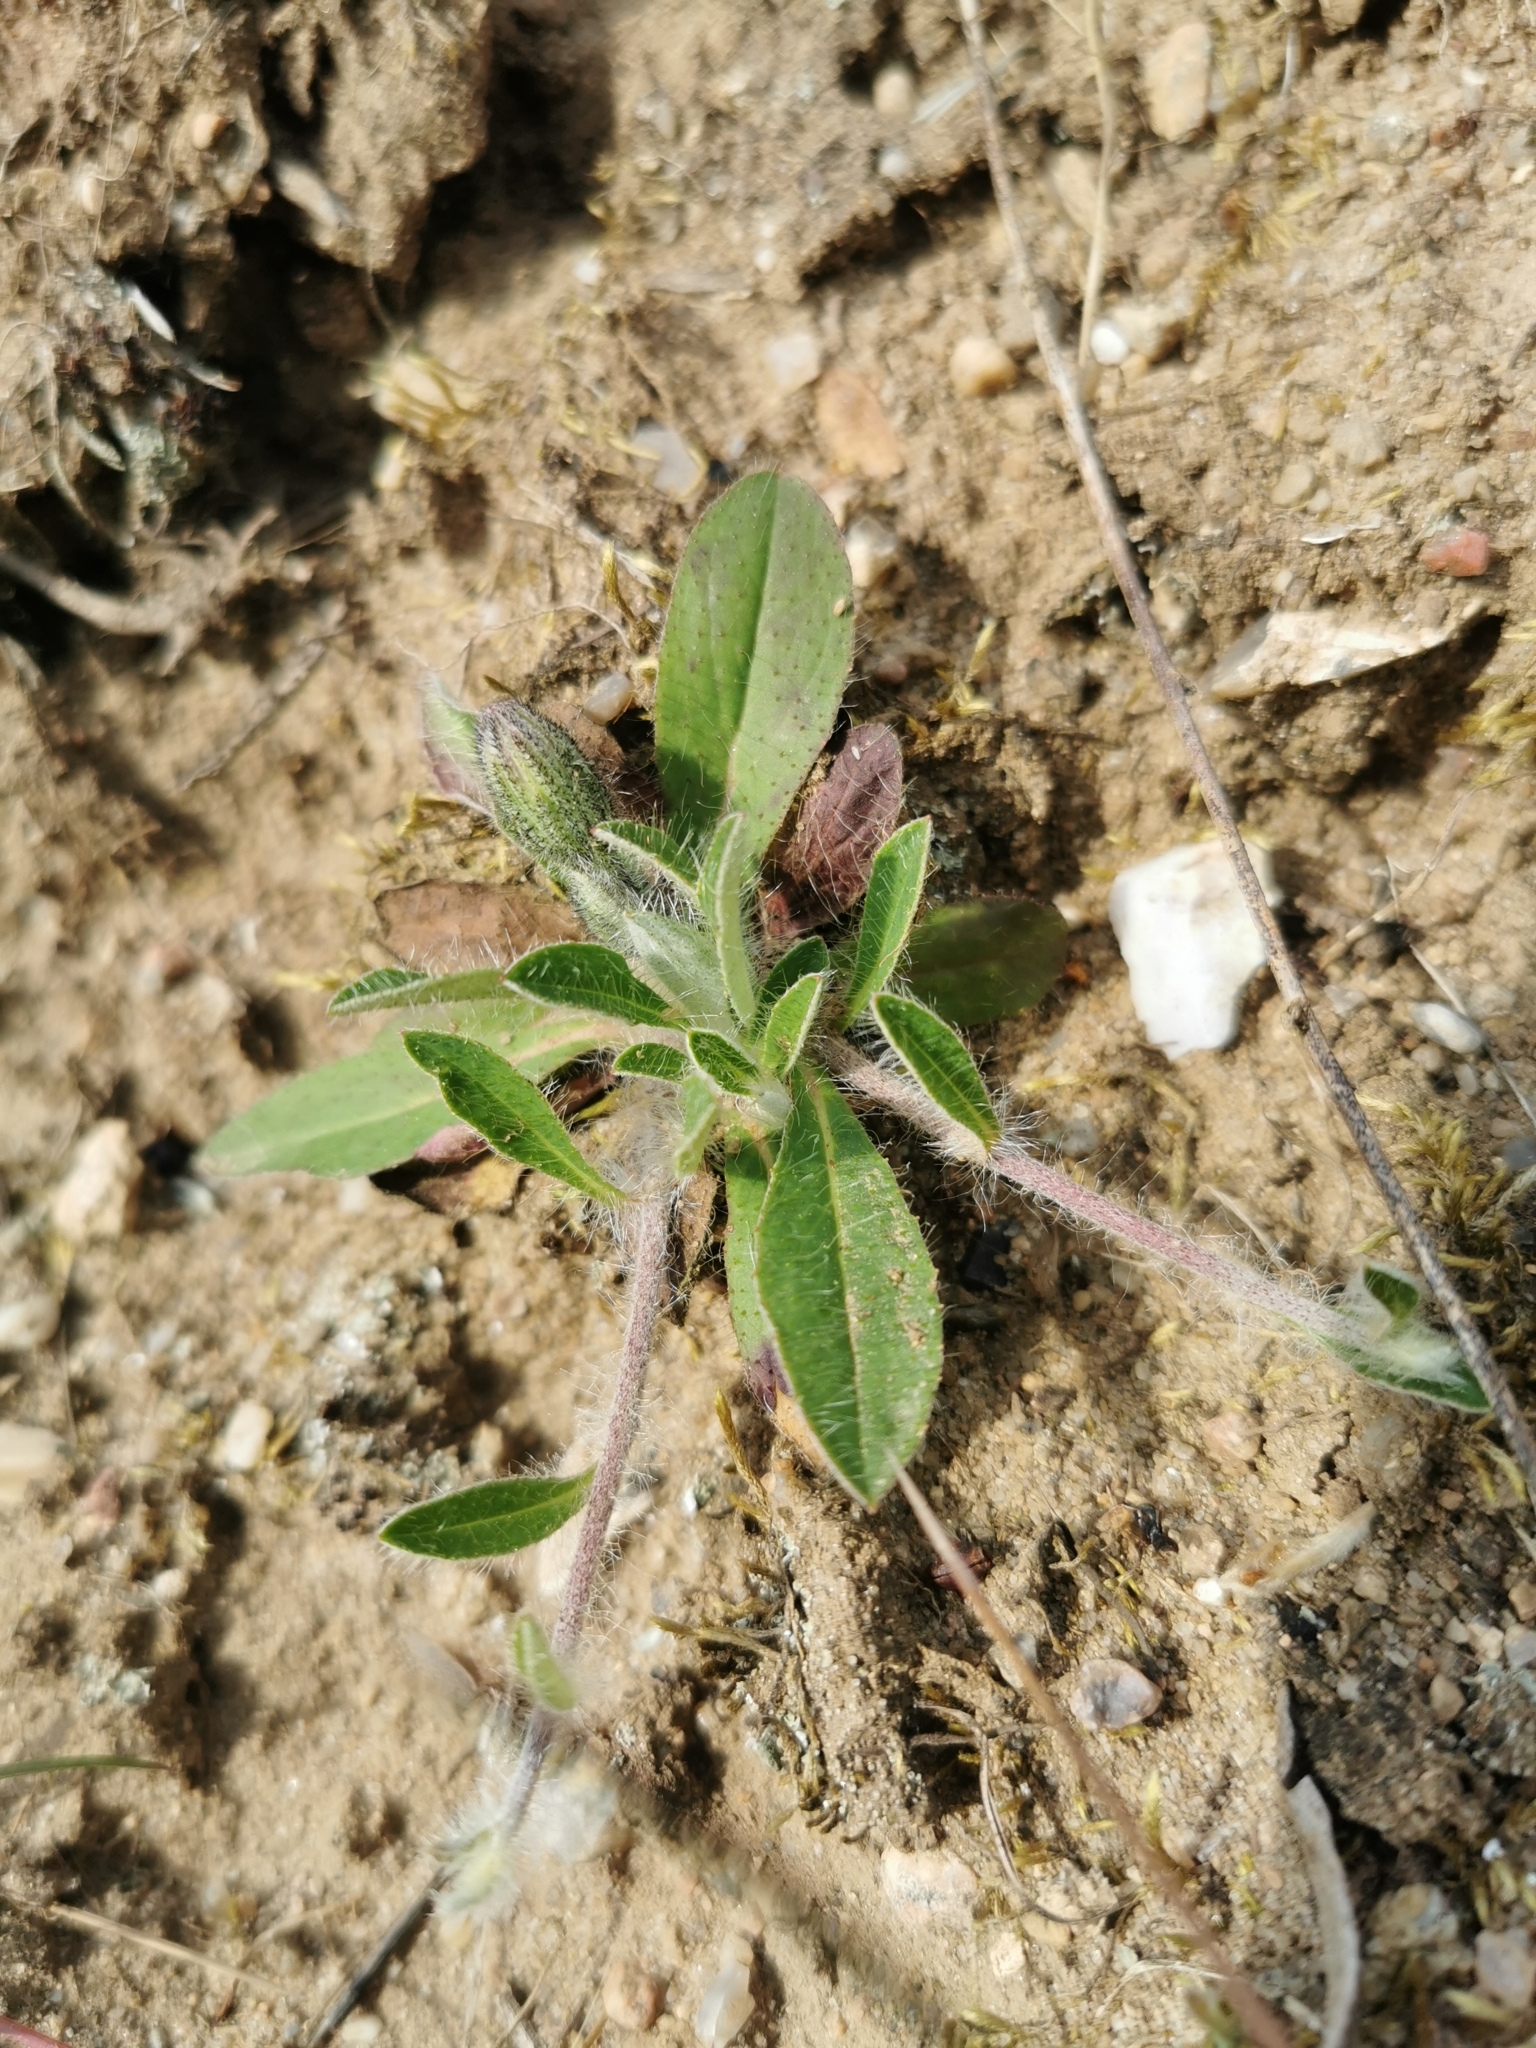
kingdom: Plantae
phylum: Tracheophyta
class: Magnoliopsida
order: Asterales
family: Asteraceae
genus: Pilosella
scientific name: Pilosella officinarum
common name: Mouse-ear hawkweed
